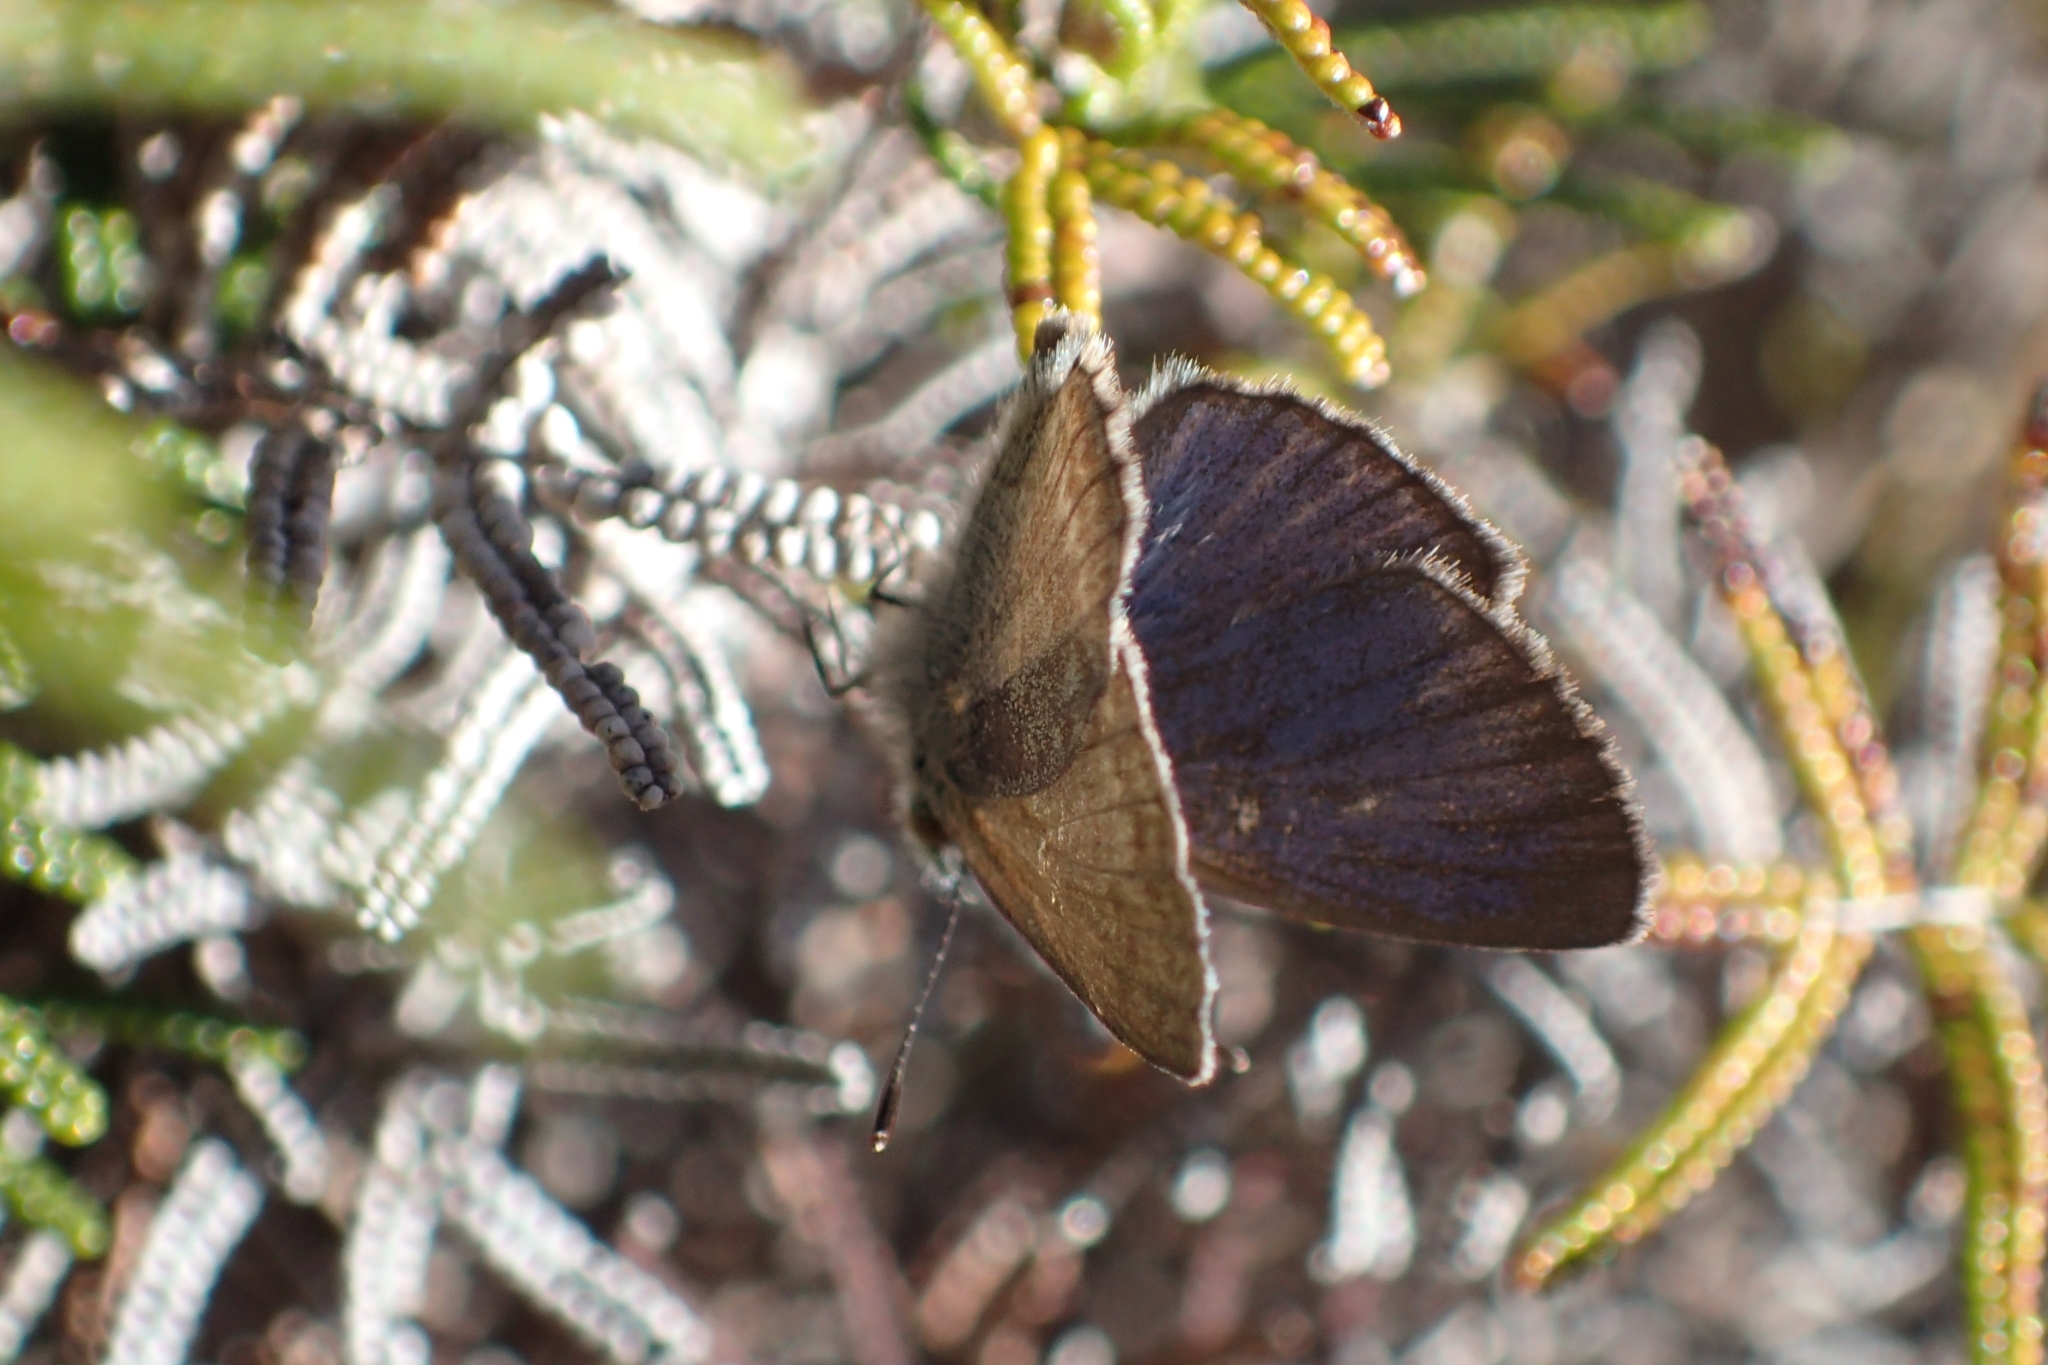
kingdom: Animalia
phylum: Arthropoda
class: Insecta
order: Lepidoptera
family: Lycaenidae
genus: Zizina
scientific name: Zizina labradus
